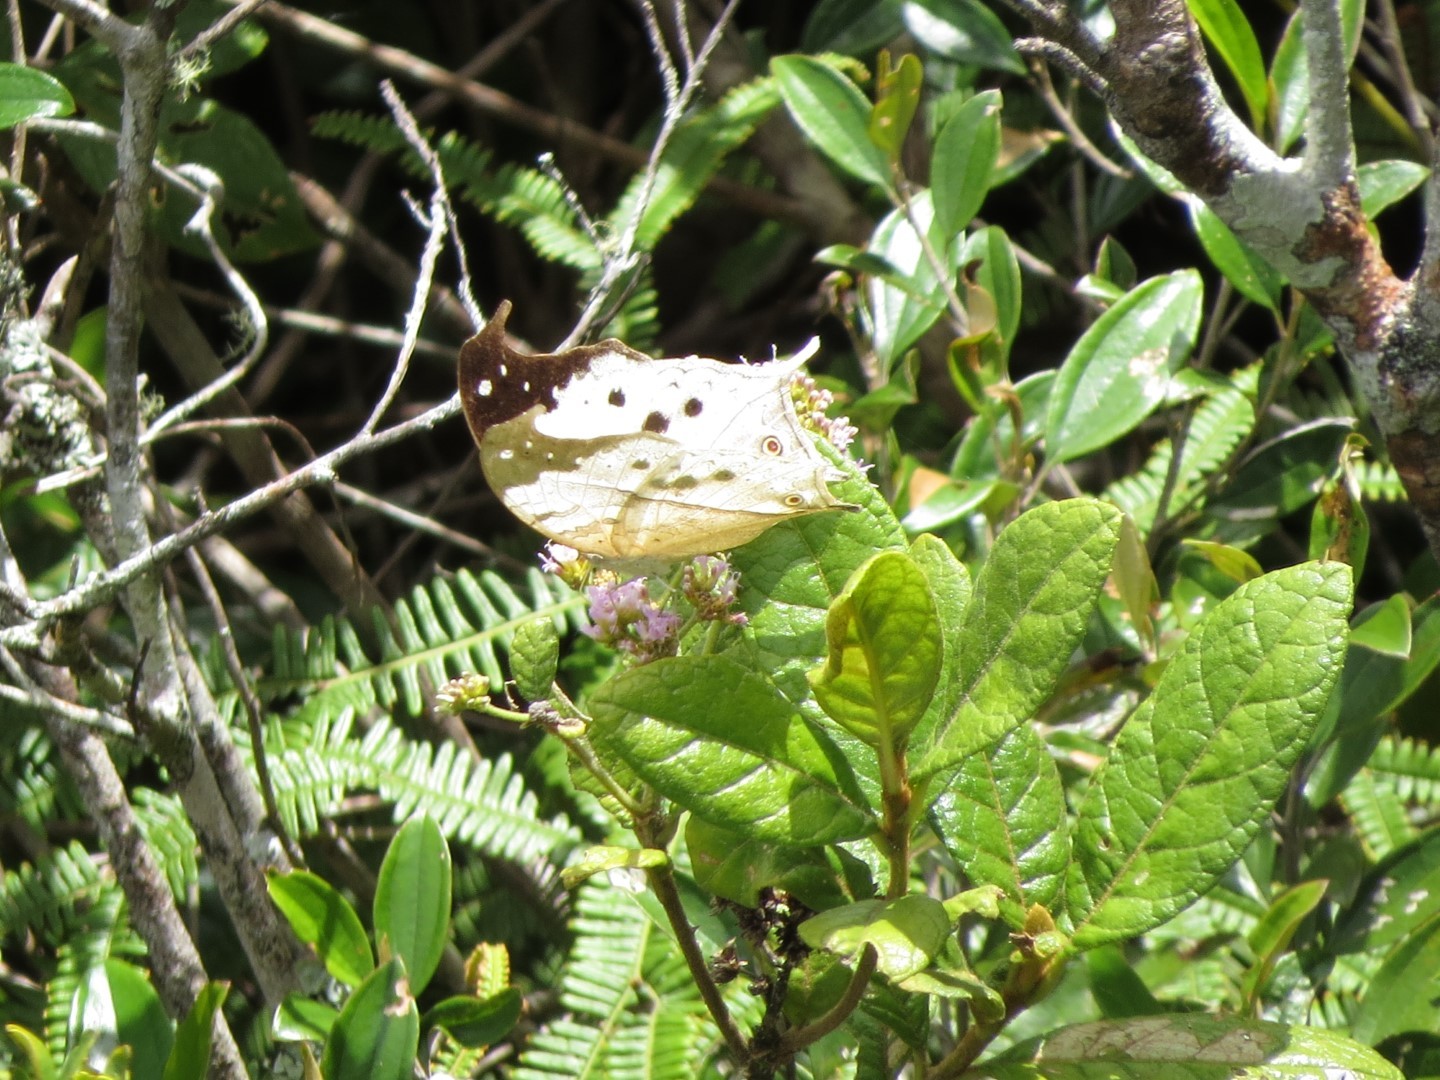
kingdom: Animalia
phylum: Arthropoda
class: Insecta
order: Lepidoptera
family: Nymphalidae
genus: Salamis
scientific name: Salamis Protogoniomorpha duprei
